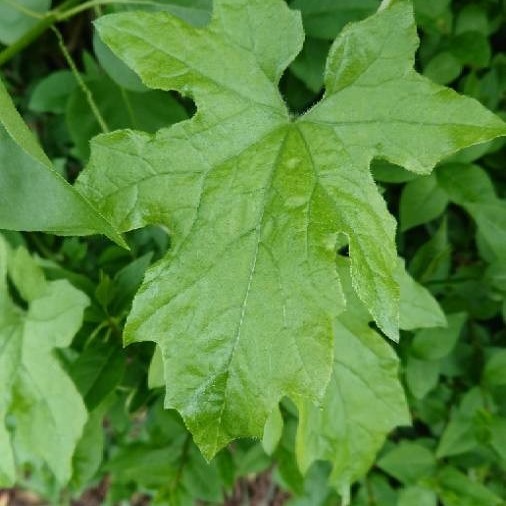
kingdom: Plantae
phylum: Tracheophyta
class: Magnoliopsida
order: Cucurbitales
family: Cucurbitaceae
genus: Bryonia
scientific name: Bryonia cretica
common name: Cretan bryony
